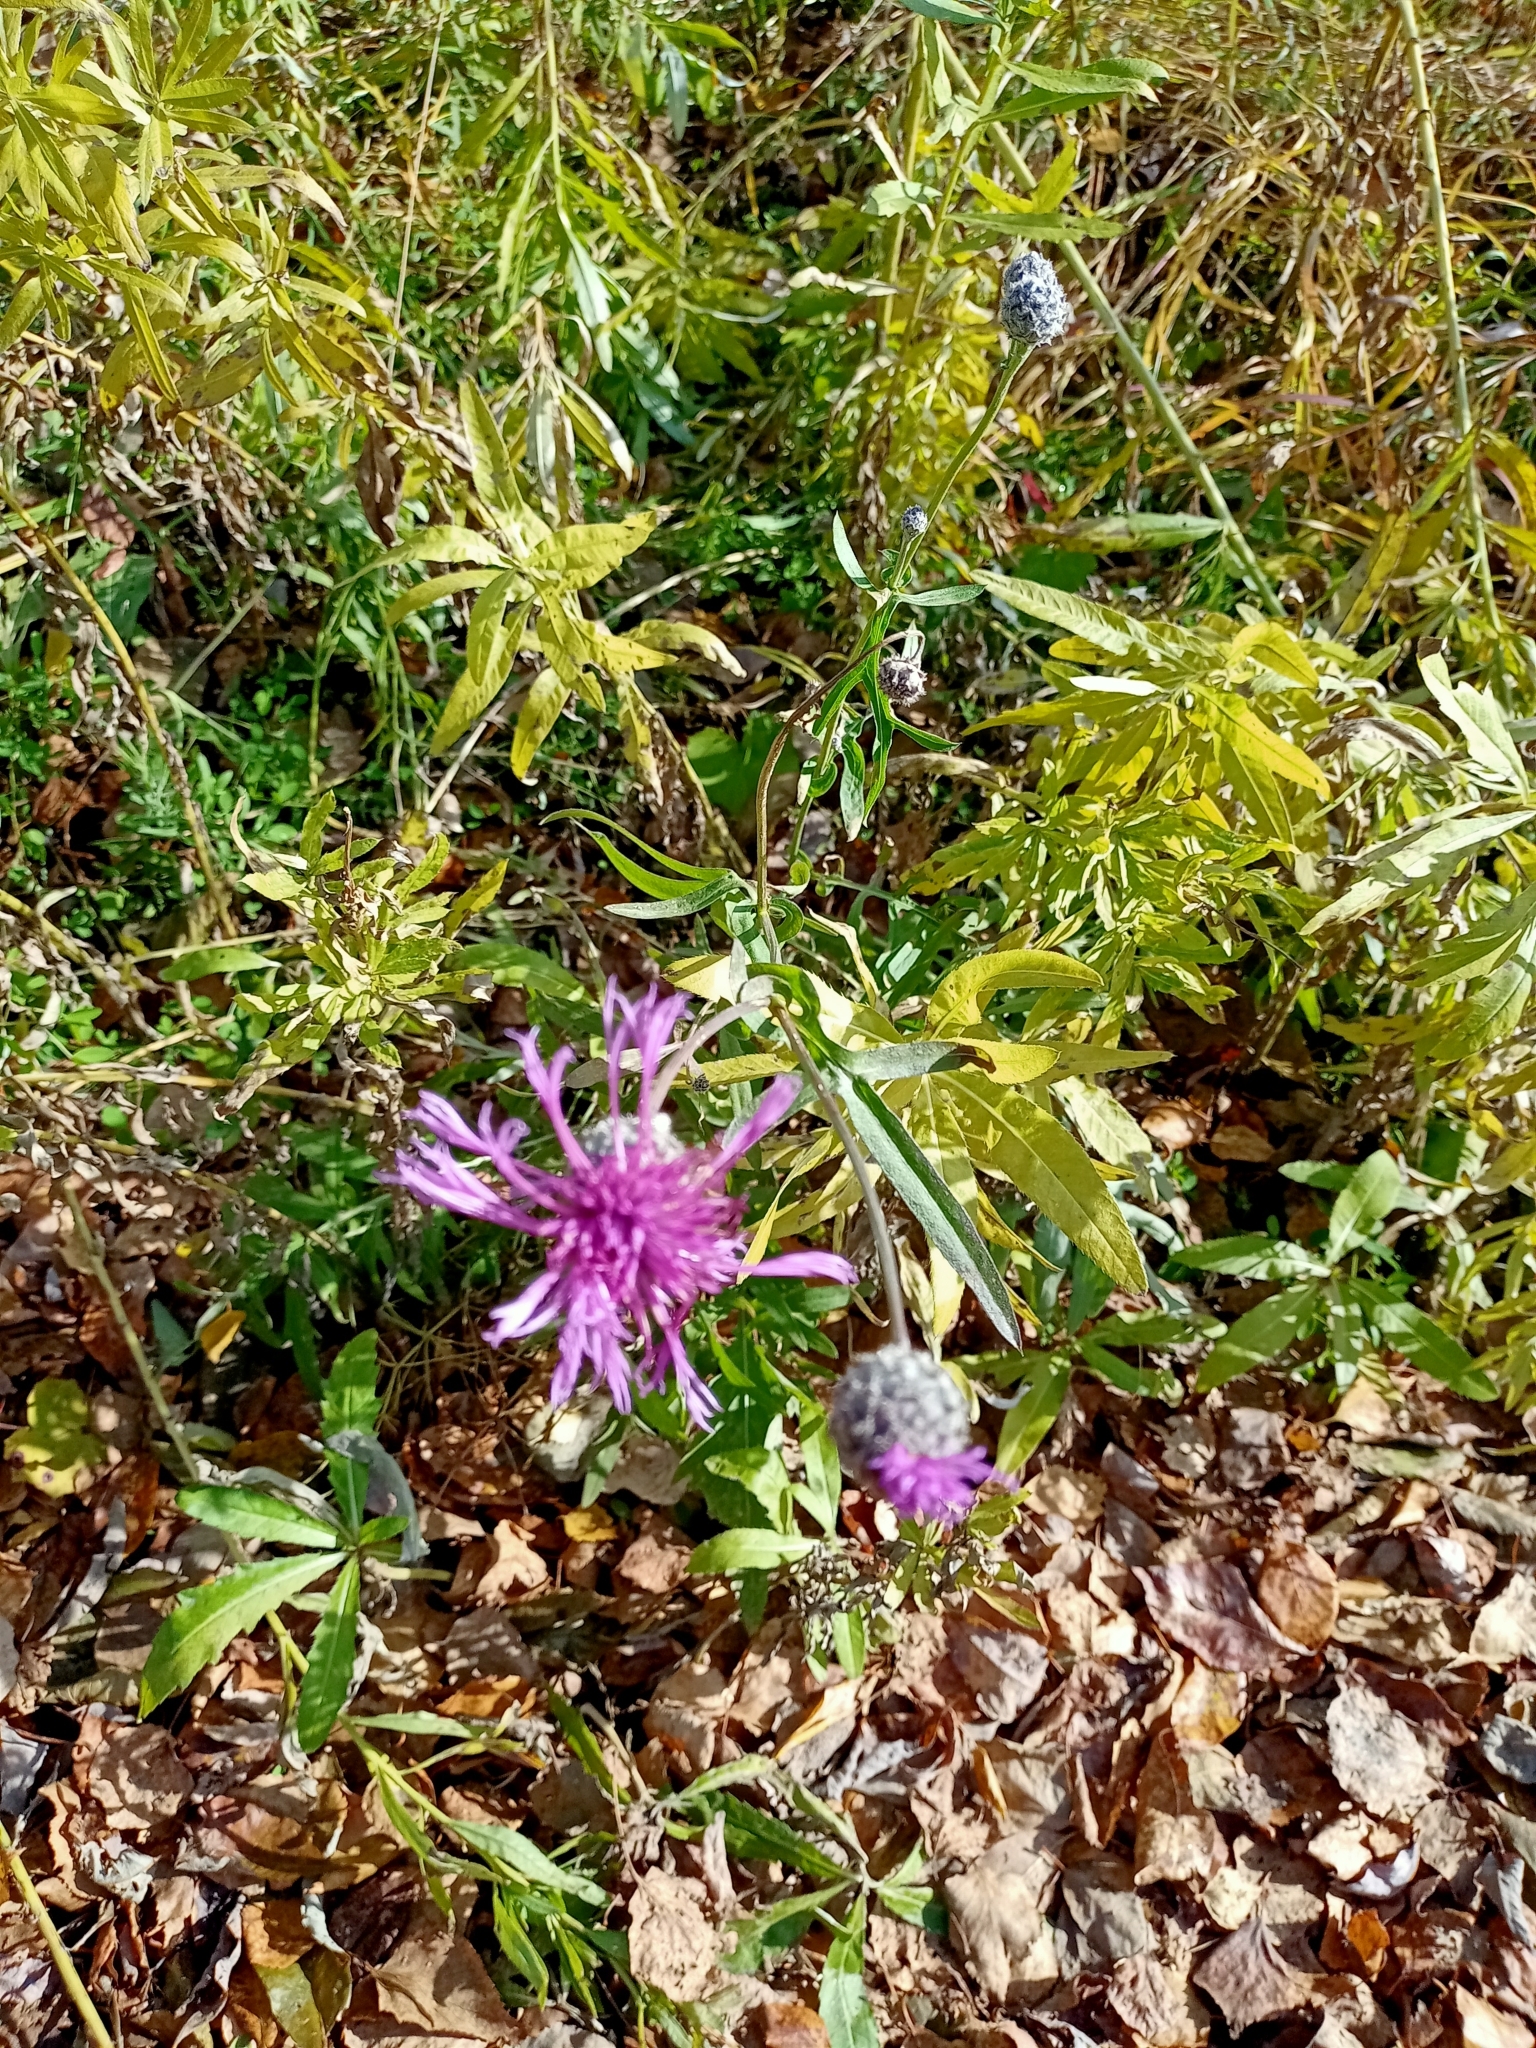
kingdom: Plantae
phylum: Tracheophyta
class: Magnoliopsida
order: Asterales
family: Asteraceae
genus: Centaurea
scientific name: Centaurea scabiosa
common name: Greater knapweed
